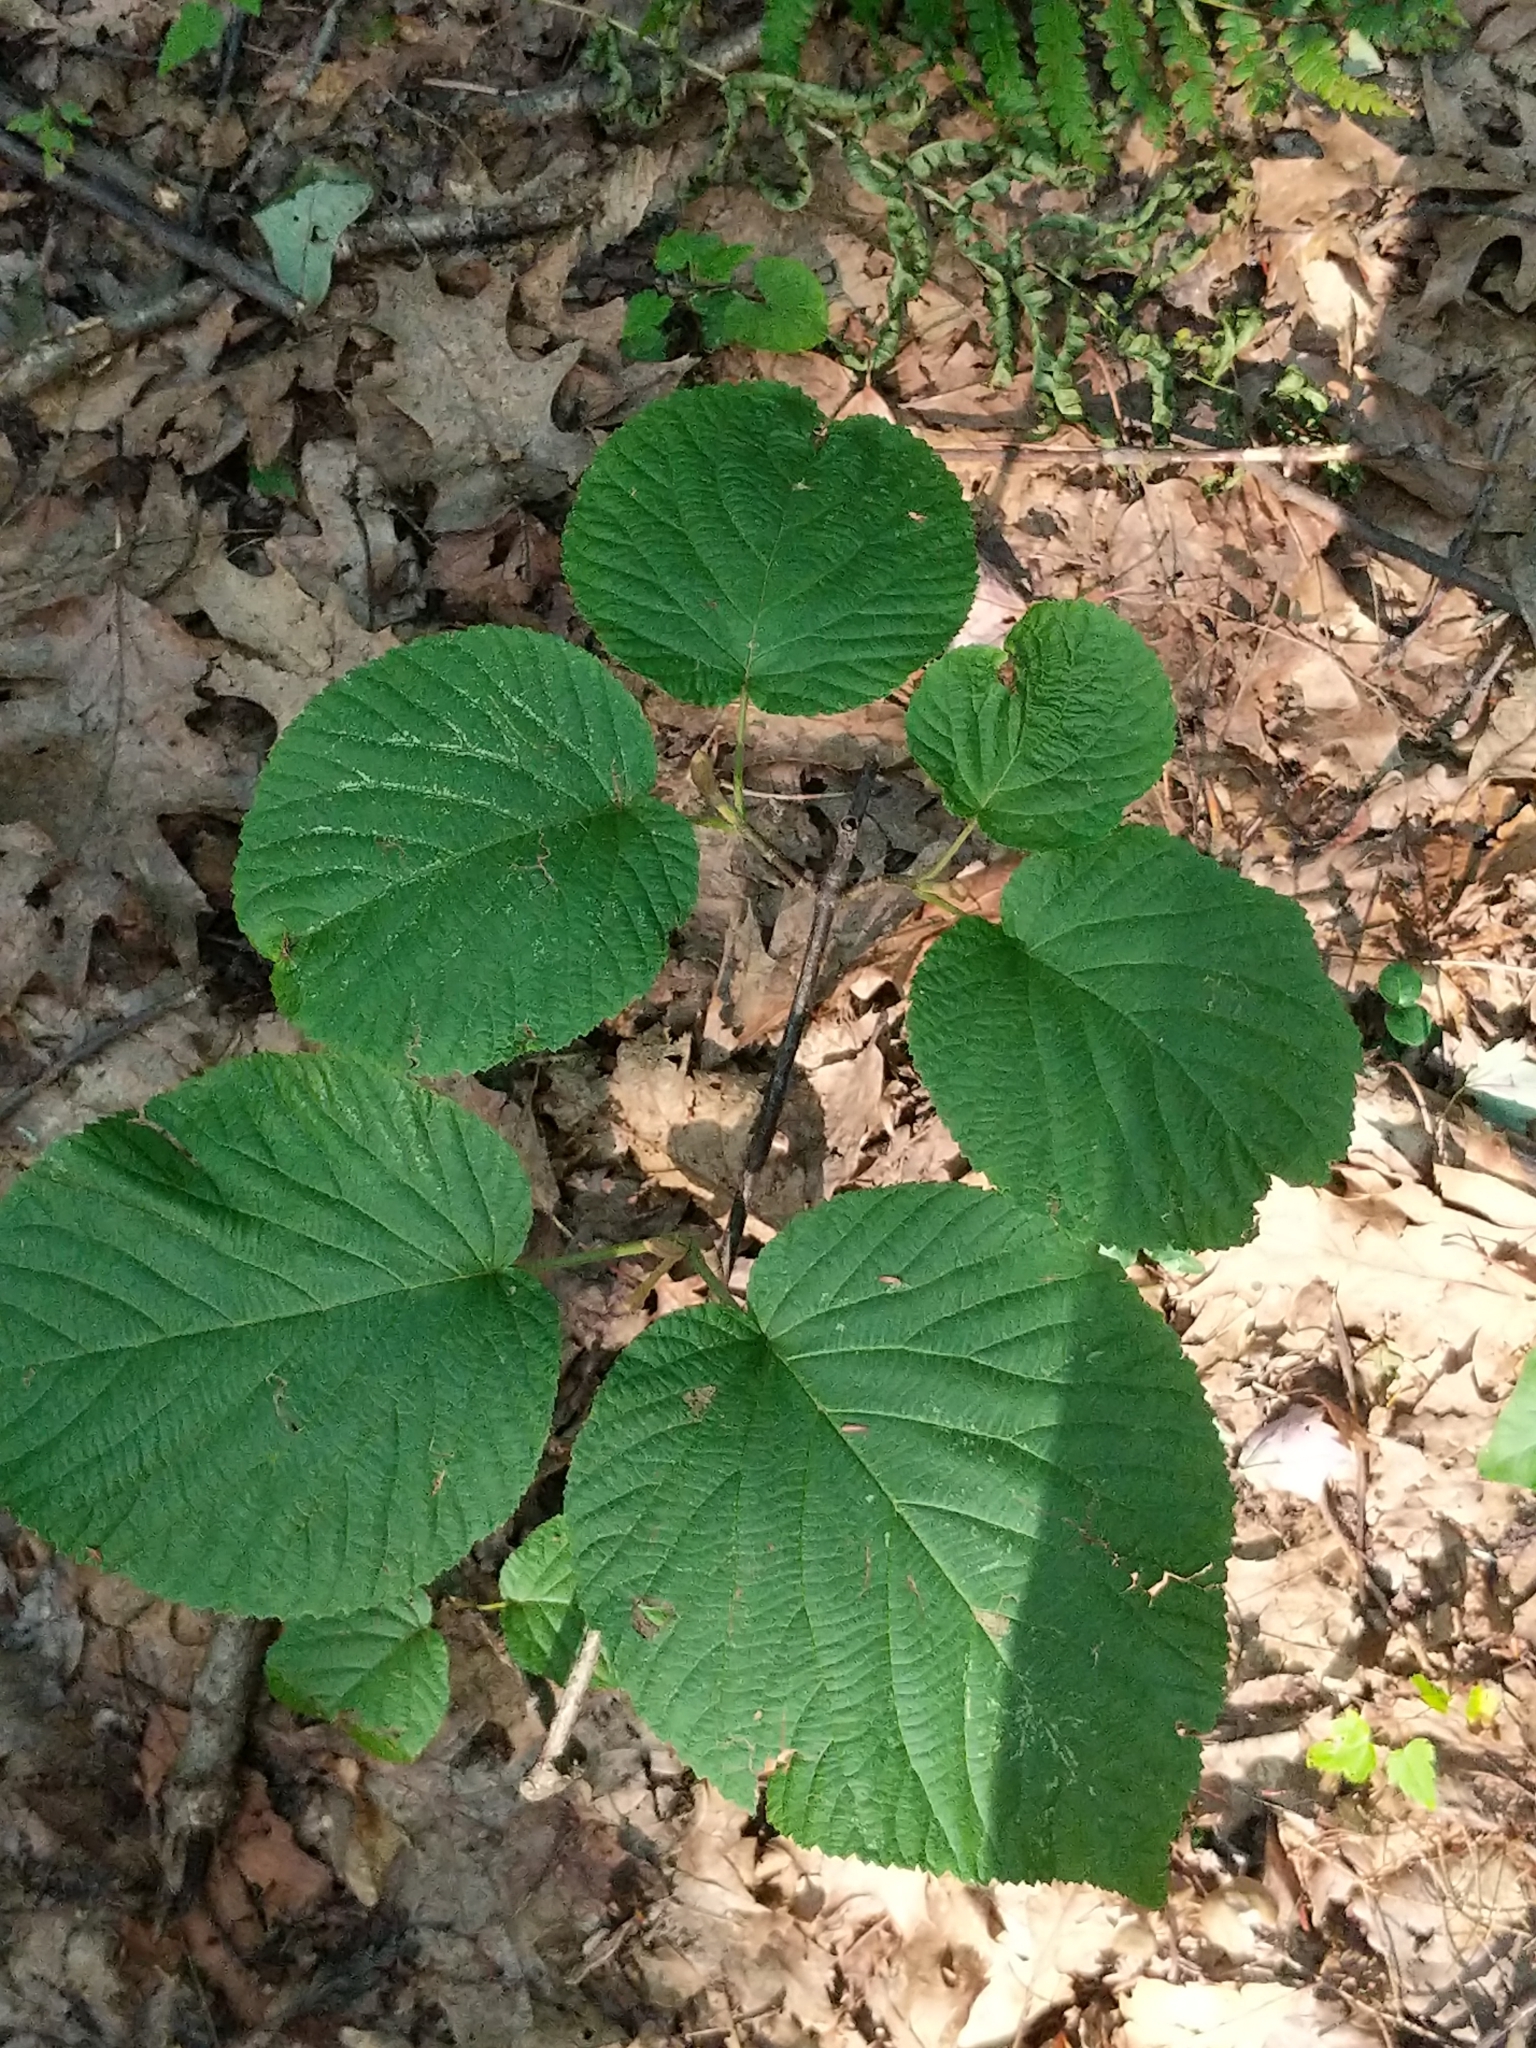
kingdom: Plantae
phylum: Tracheophyta
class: Magnoliopsida
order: Dipsacales
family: Viburnaceae
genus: Viburnum
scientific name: Viburnum lantanoides
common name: Hobblebush
